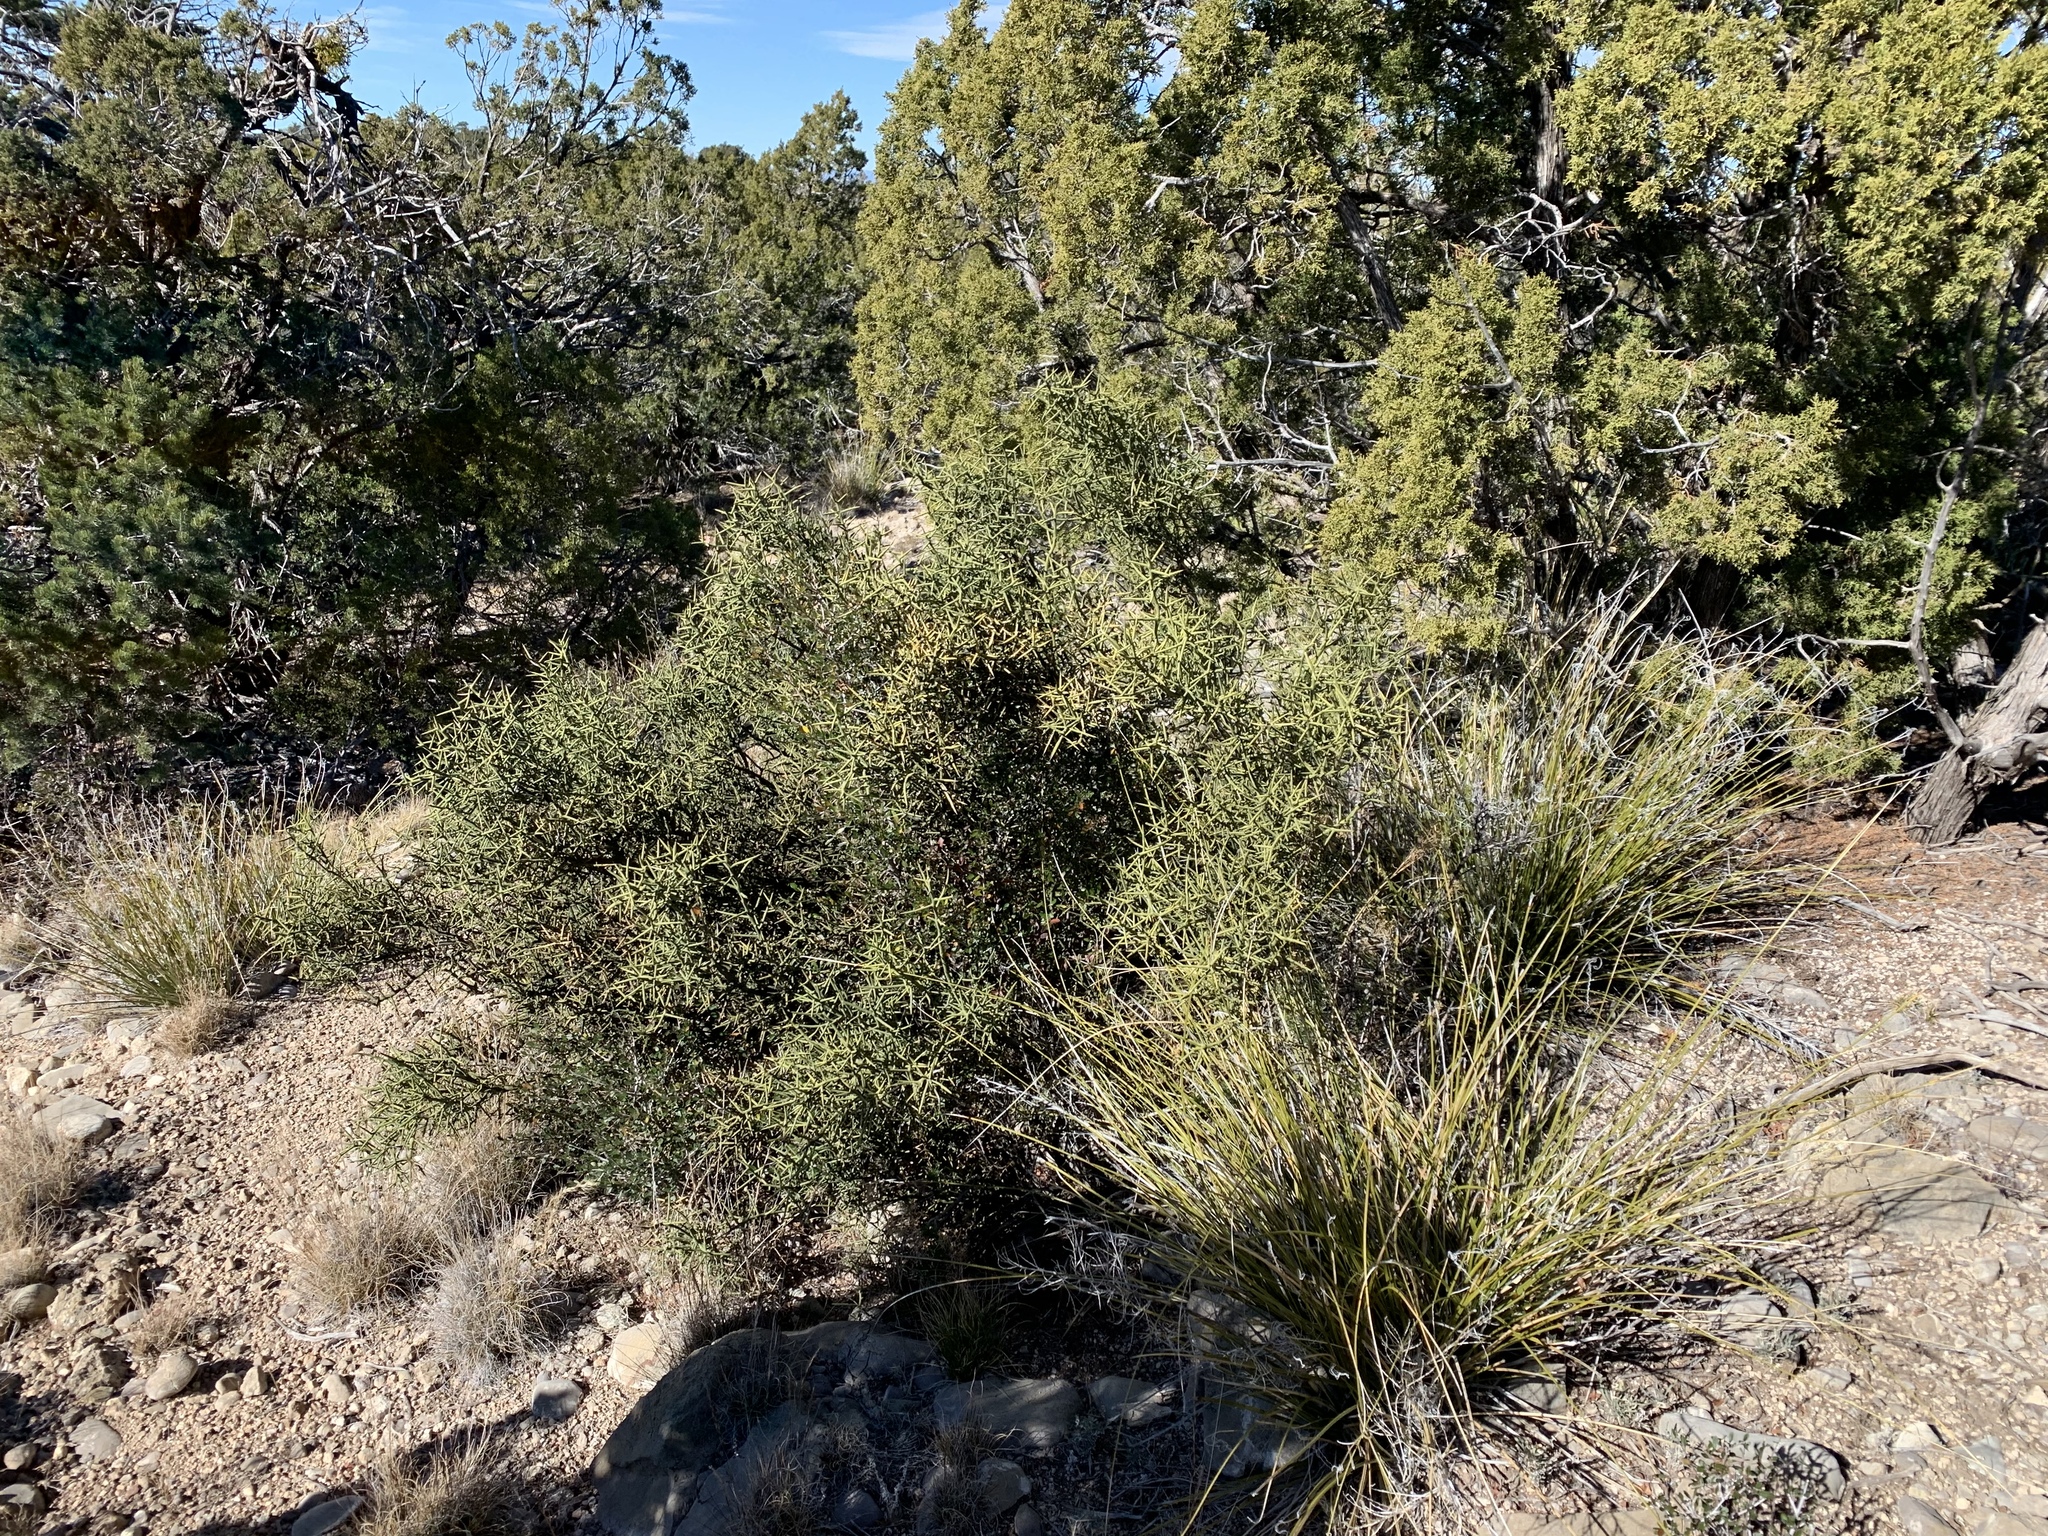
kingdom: Plantae
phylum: Tracheophyta
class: Magnoliopsida
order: Brassicales
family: Koeberliniaceae
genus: Koeberlinia
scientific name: Koeberlinia spinosa
